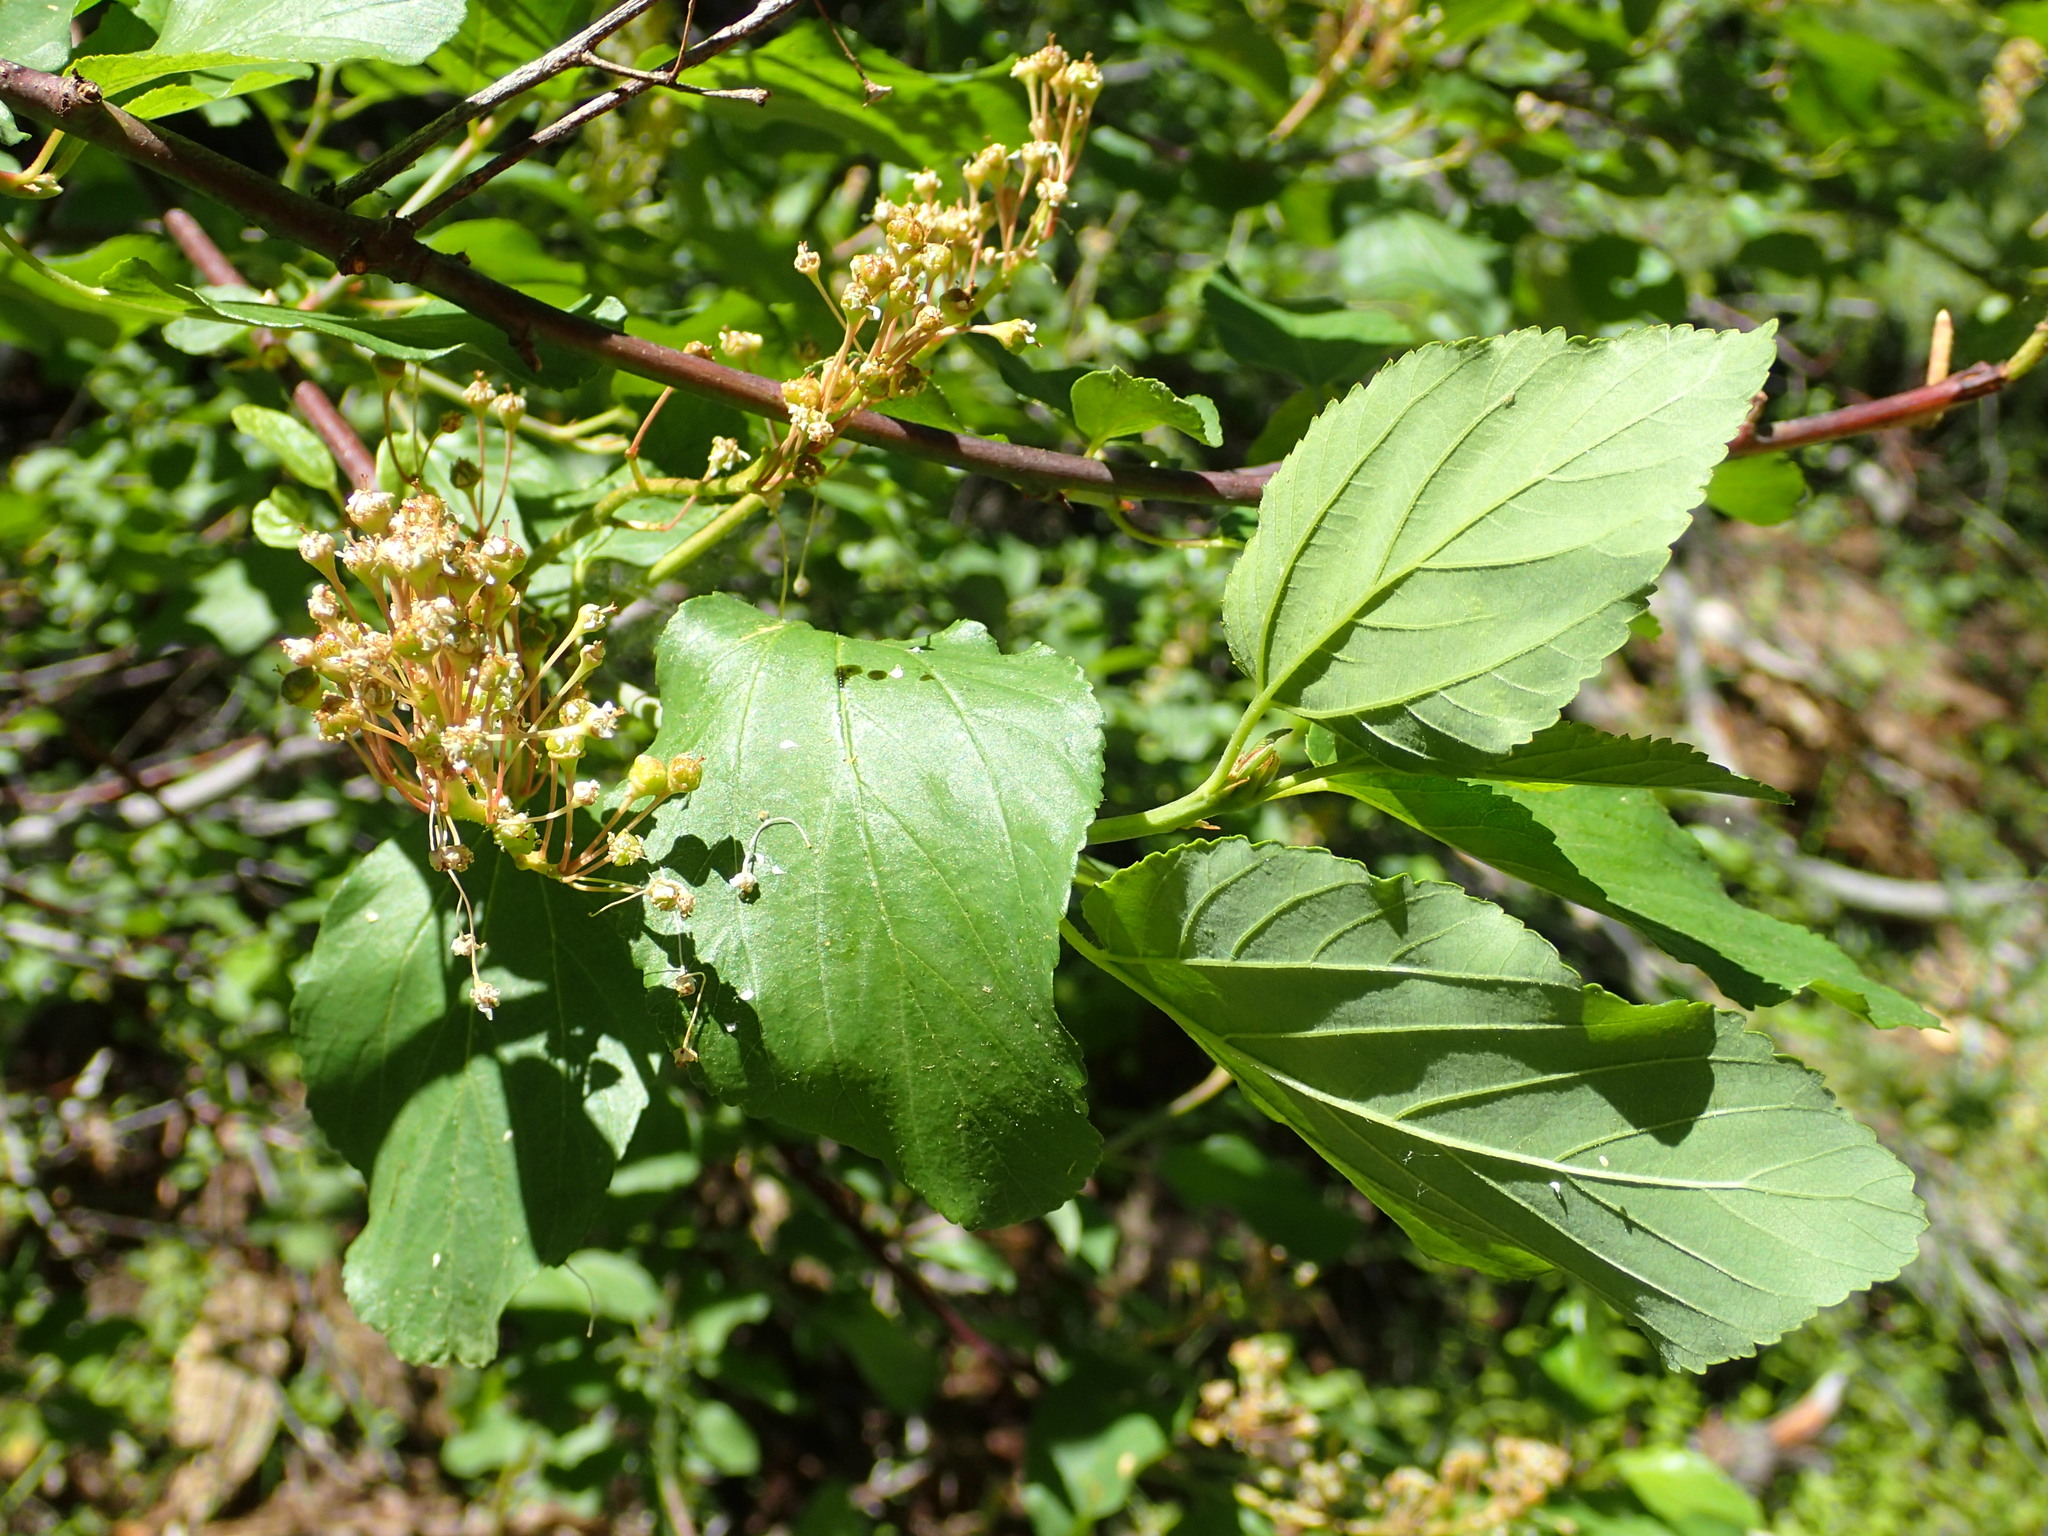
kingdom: Plantae
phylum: Tracheophyta
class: Magnoliopsida
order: Rosales
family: Rhamnaceae
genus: Ceanothus
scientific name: Ceanothus sanguineus
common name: Teatree
